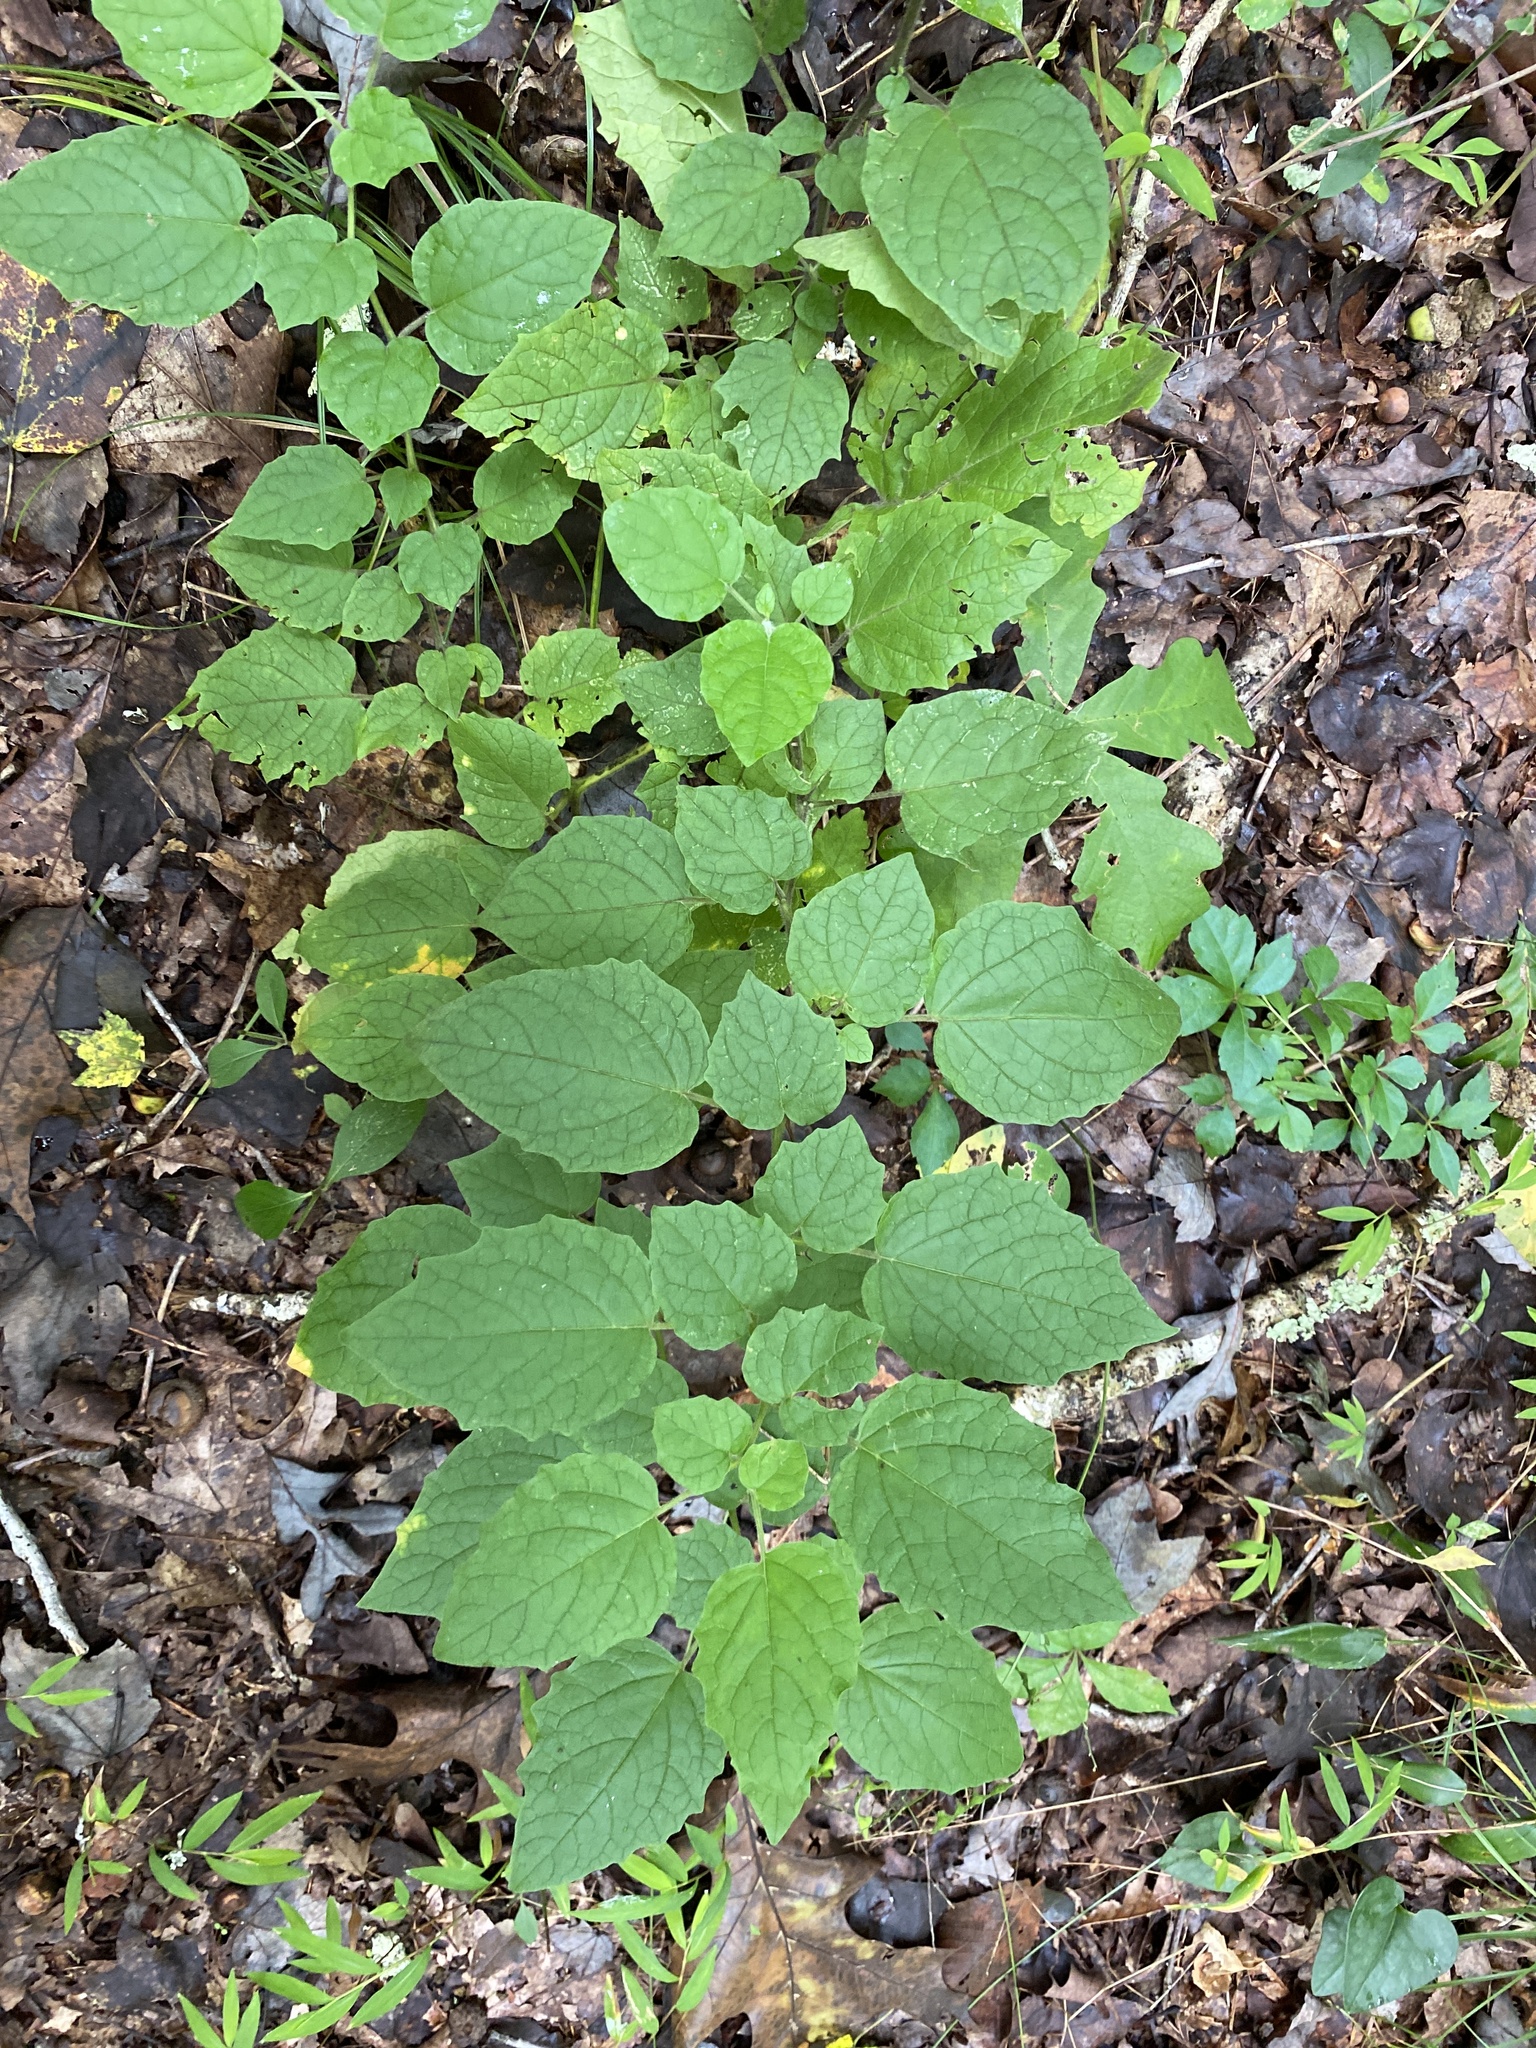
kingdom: Plantae
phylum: Tracheophyta
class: Magnoliopsida
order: Solanales
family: Solanaceae
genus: Physalis
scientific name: Physalis heterophylla
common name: Clammy ground-cherry
